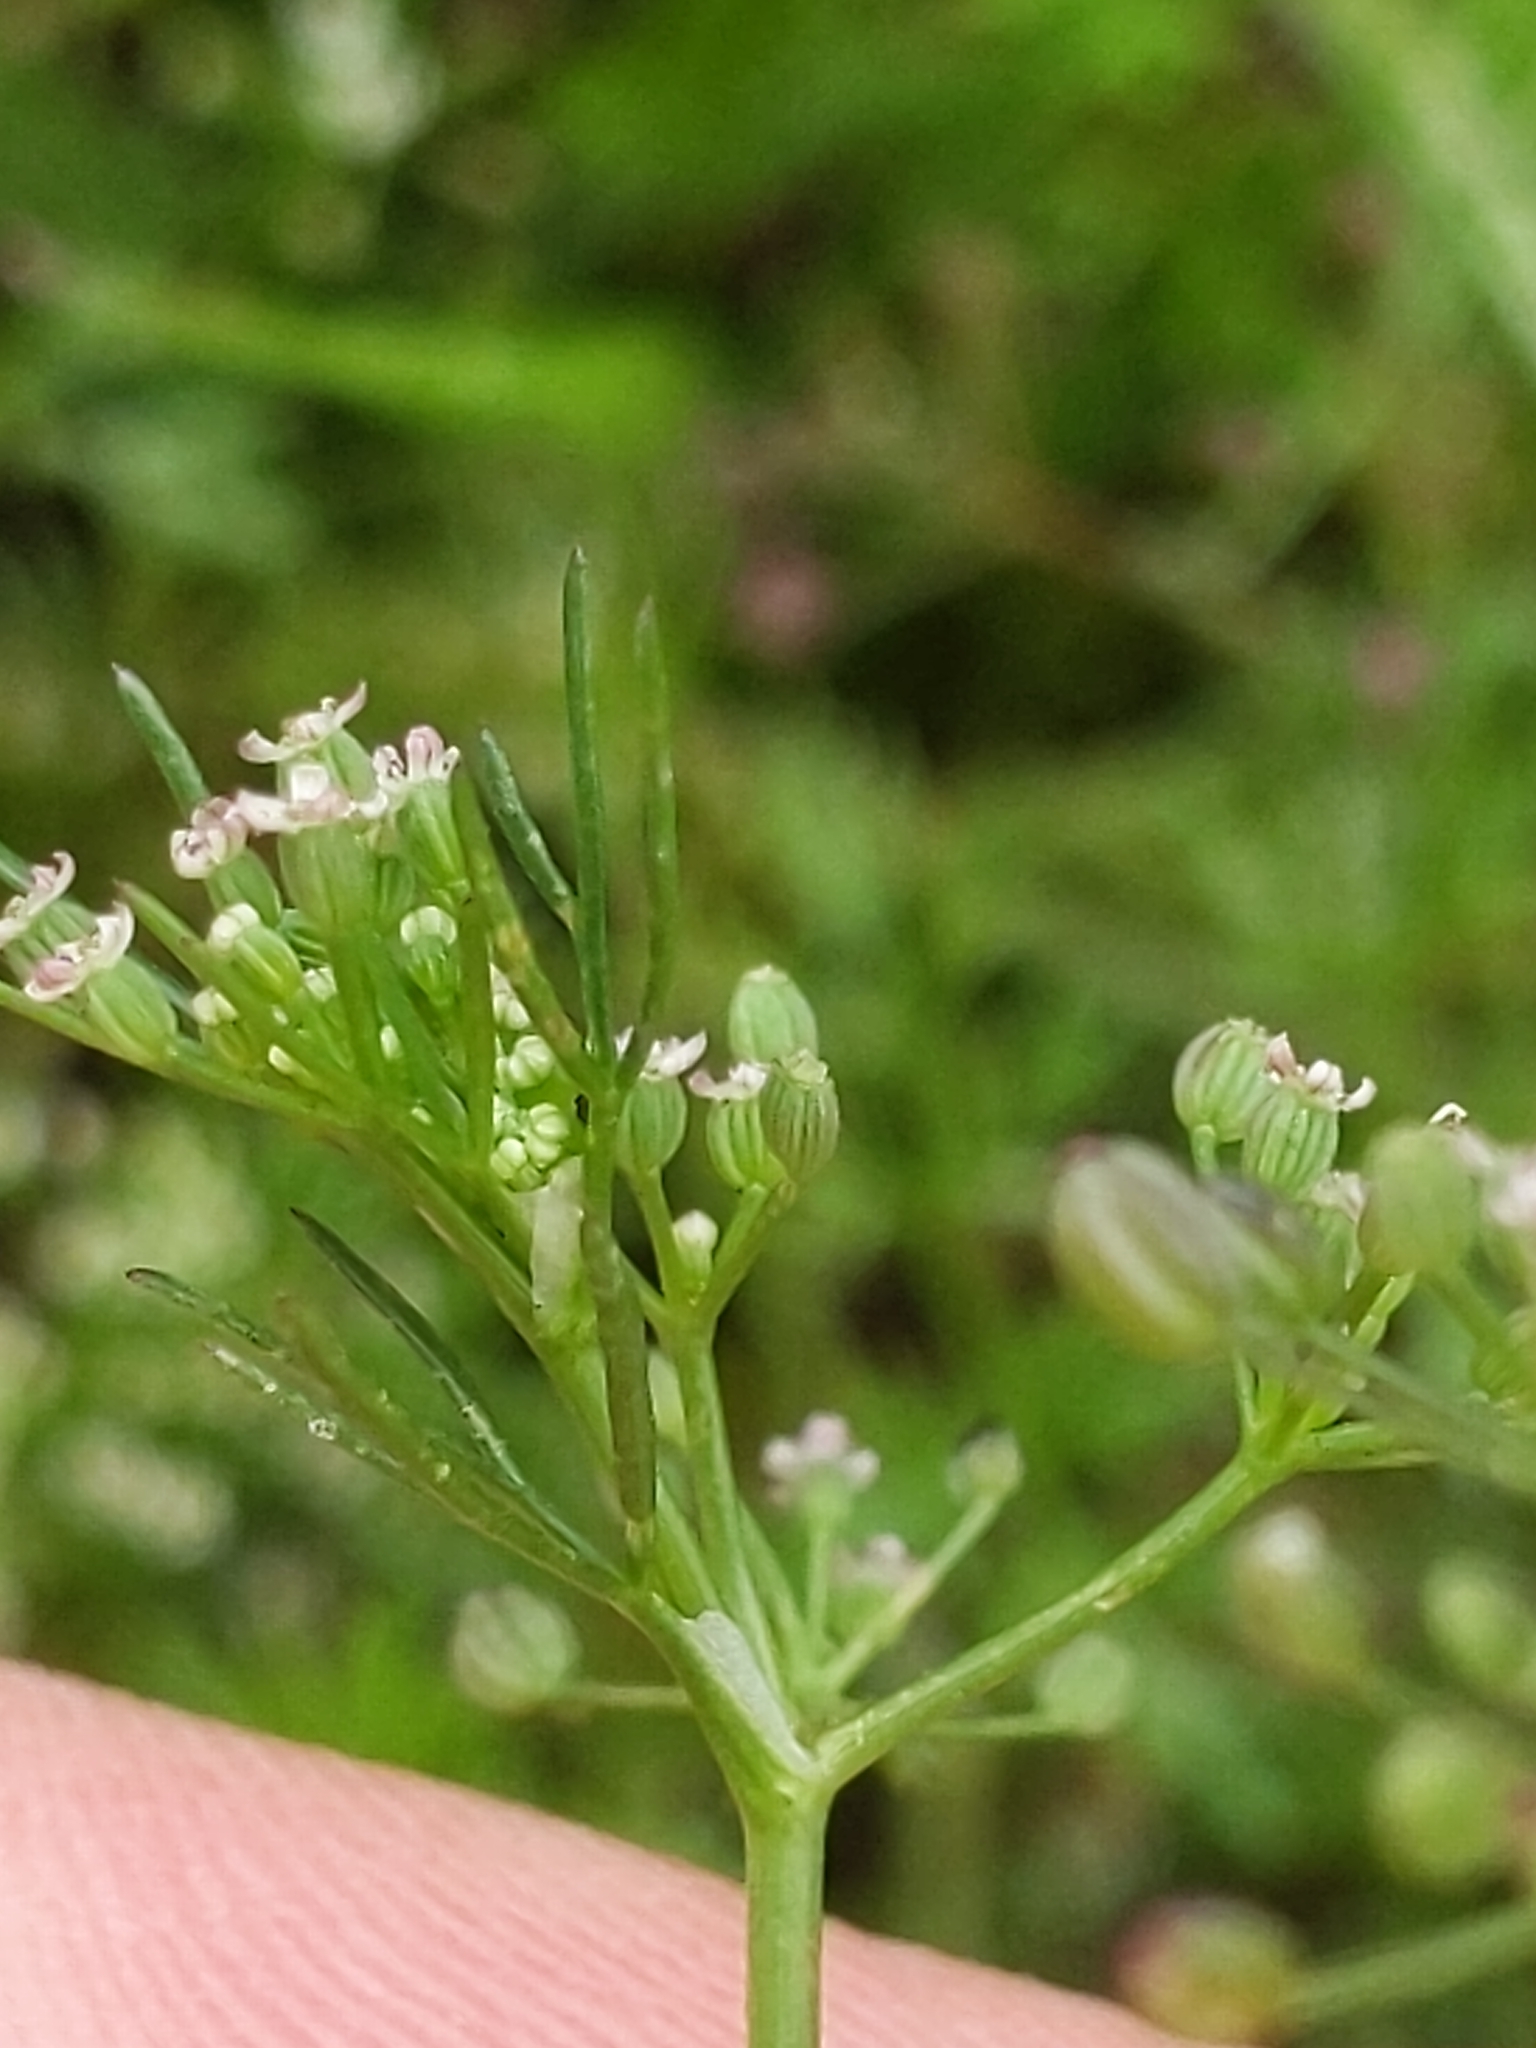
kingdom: Plantae
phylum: Tracheophyta
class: Magnoliopsida
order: Apiales
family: Apiaceae
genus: Cyclospermum
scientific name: Cyclospermum leptophyllum
